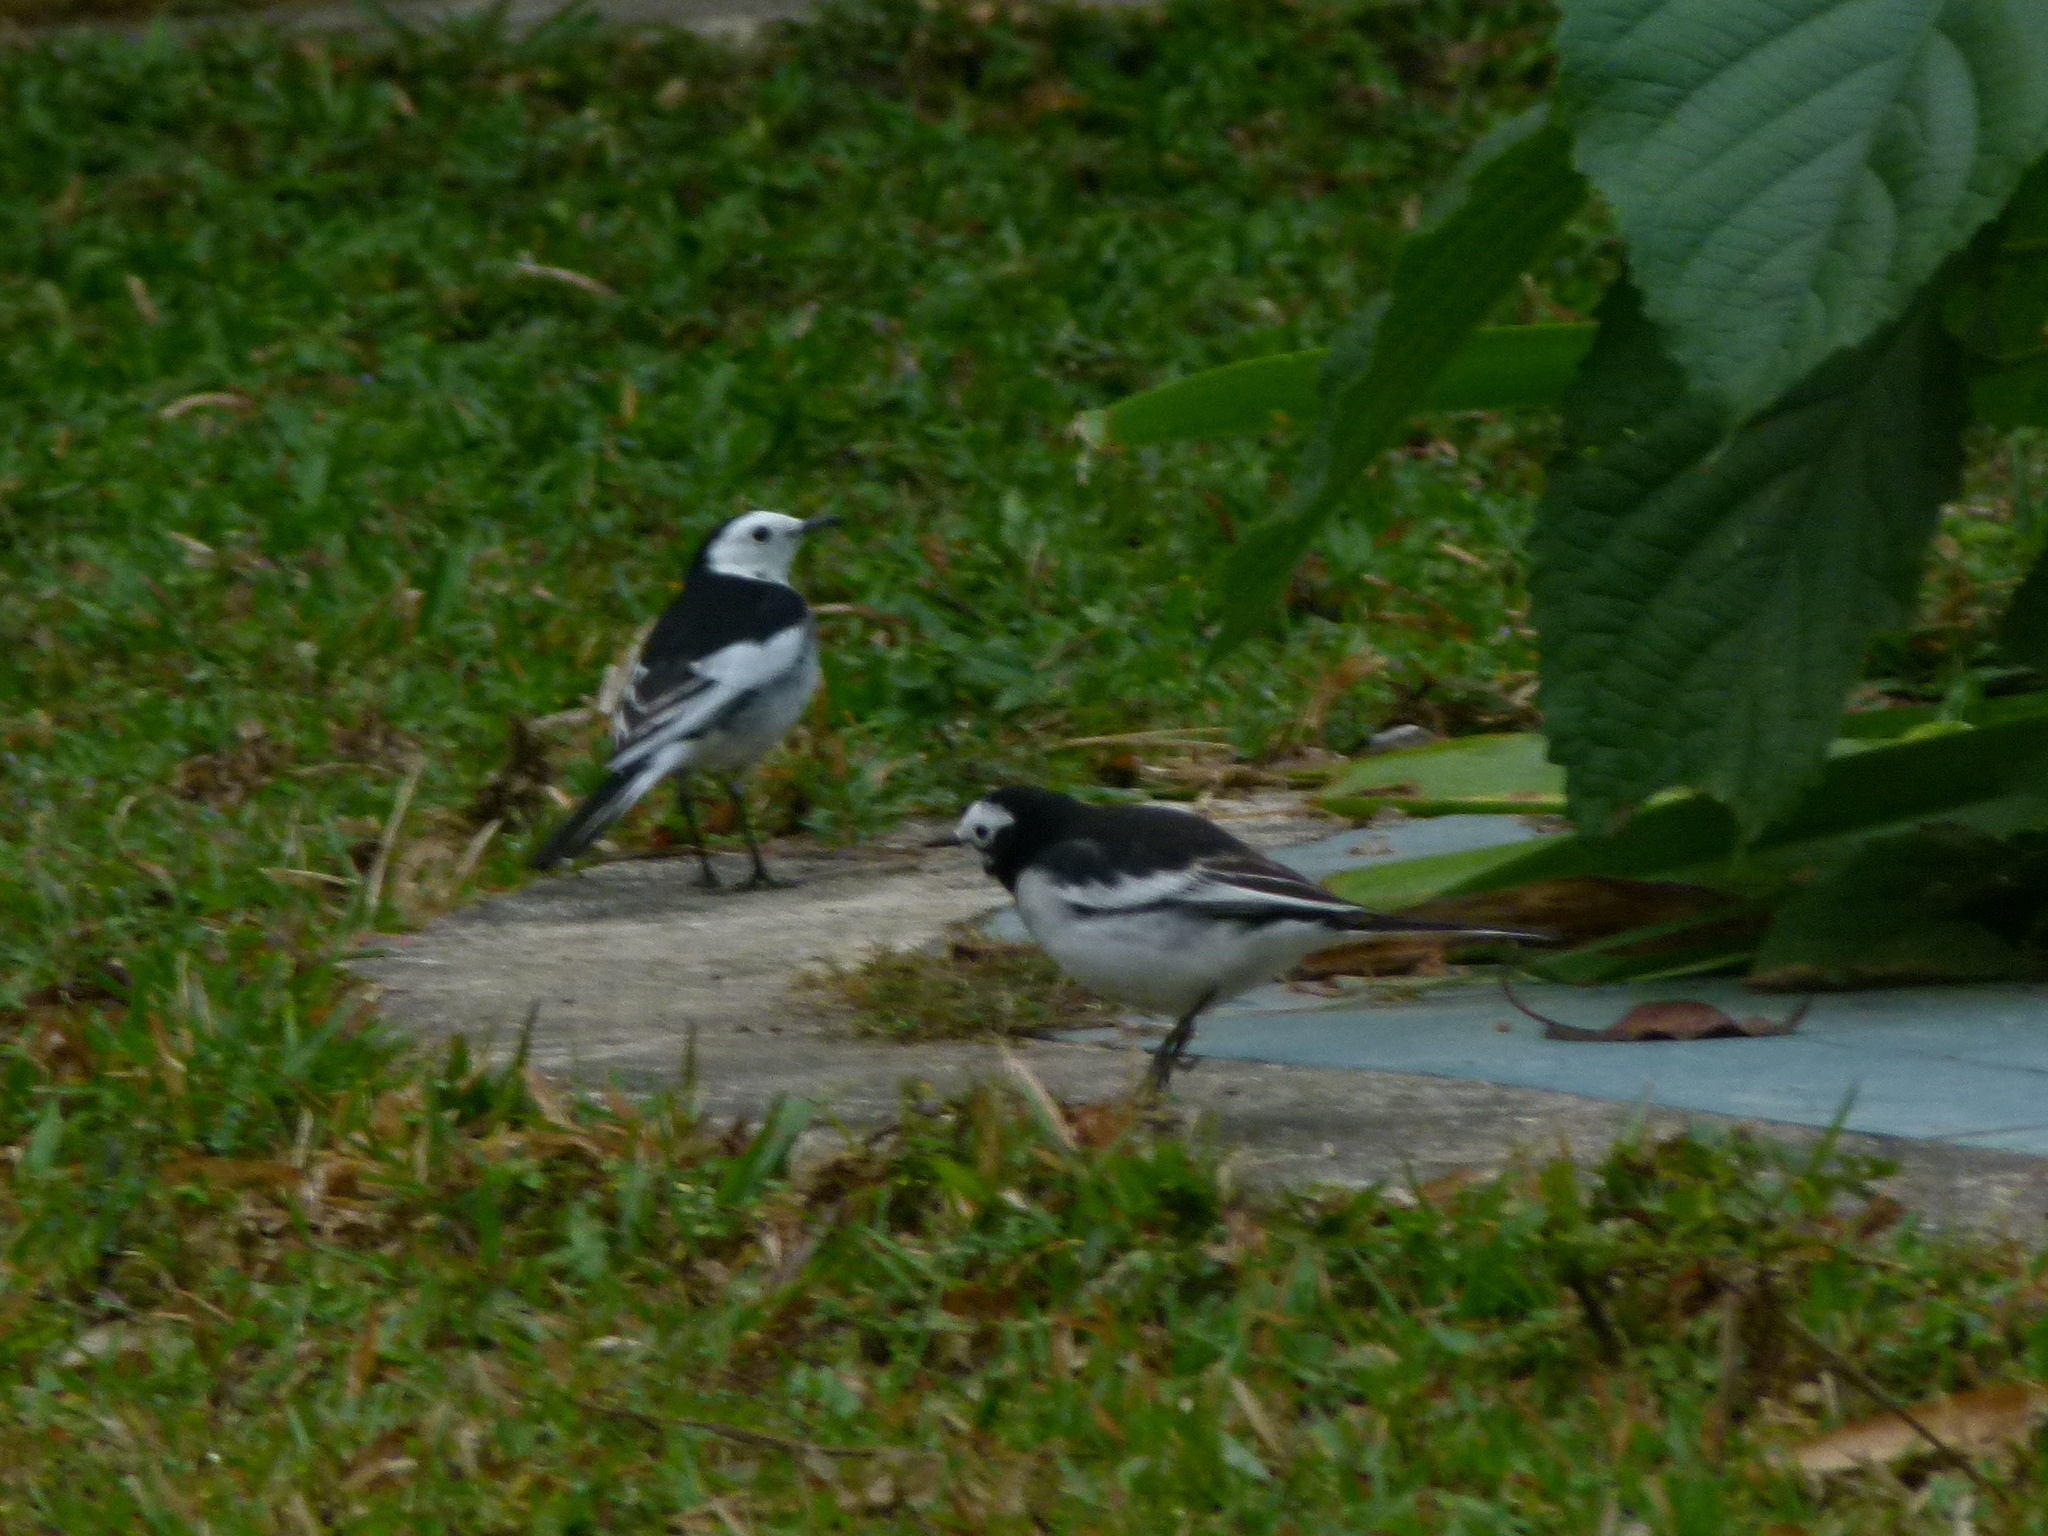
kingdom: Animalia
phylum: Chordata
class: Aves
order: Passeriformes
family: Motacillidae
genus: Motacilla
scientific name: Motacilla alba
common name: White wagtail
